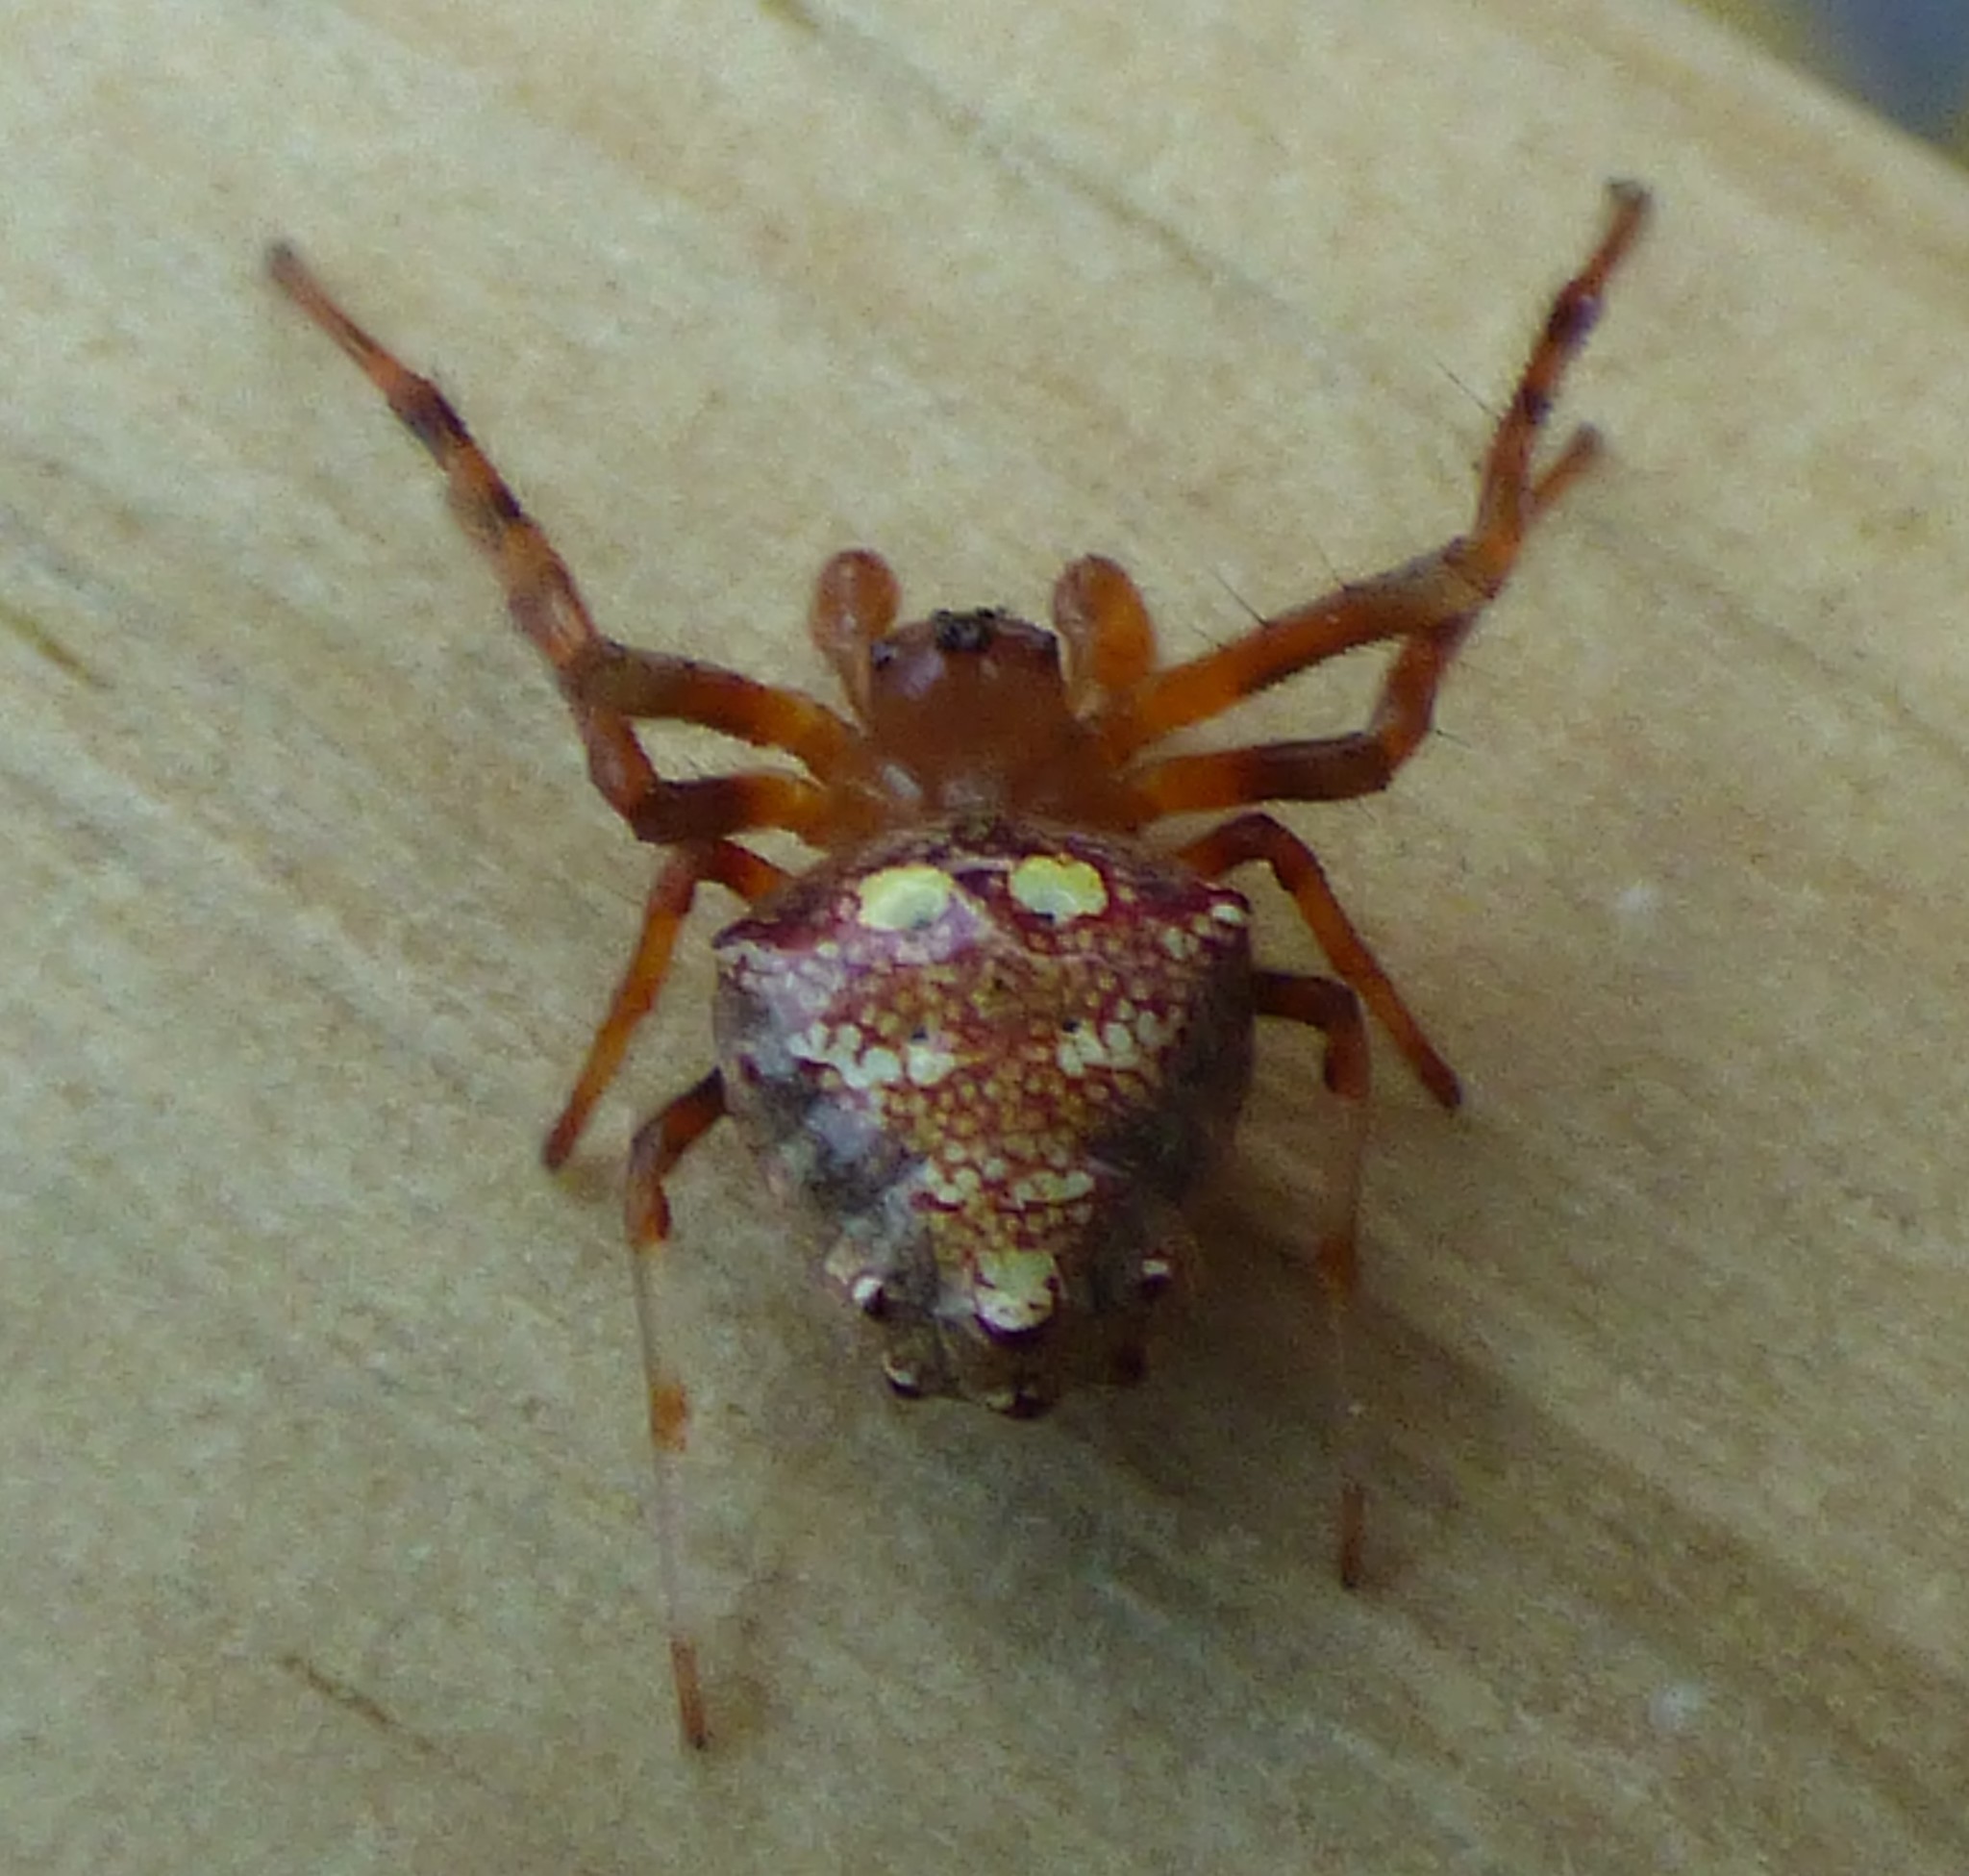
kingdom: Animalia
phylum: Arthropoda
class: Arachnida
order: Araneae
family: Araneidae
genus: Verrucosa
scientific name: Verrucosa arenata
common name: Orb weavers
